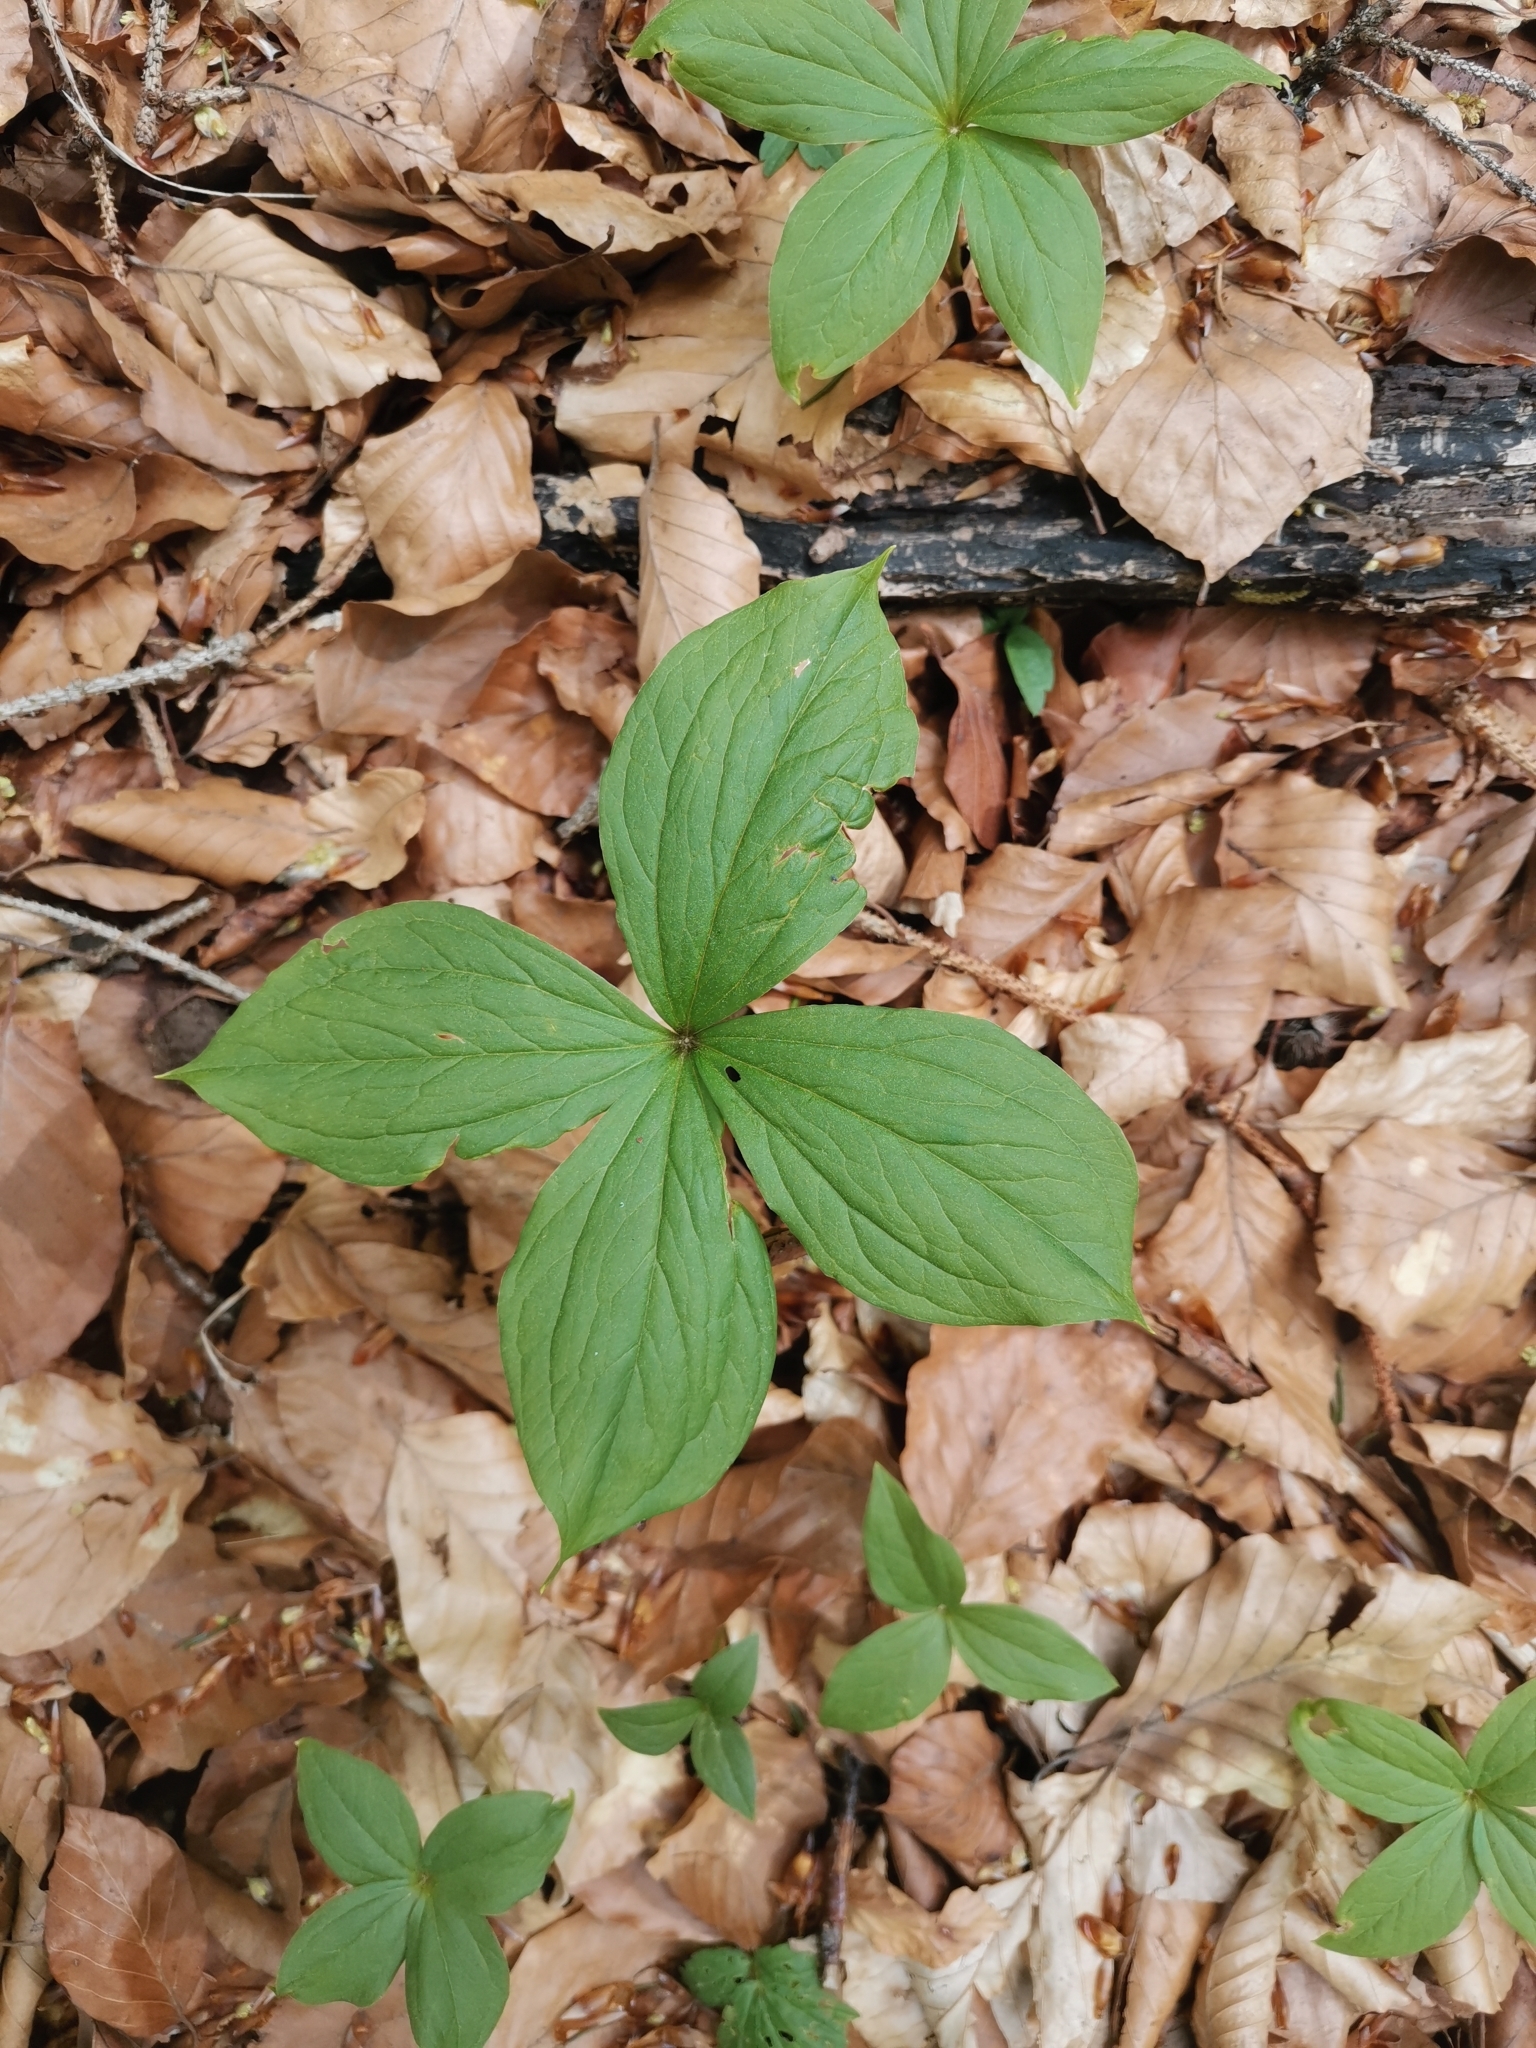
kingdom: Plantae
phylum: Tracheophyta
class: Liliopsida
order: Liliales
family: Melanthiaceae
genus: Paris
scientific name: Paris quadrifolia
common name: Herb-paris
